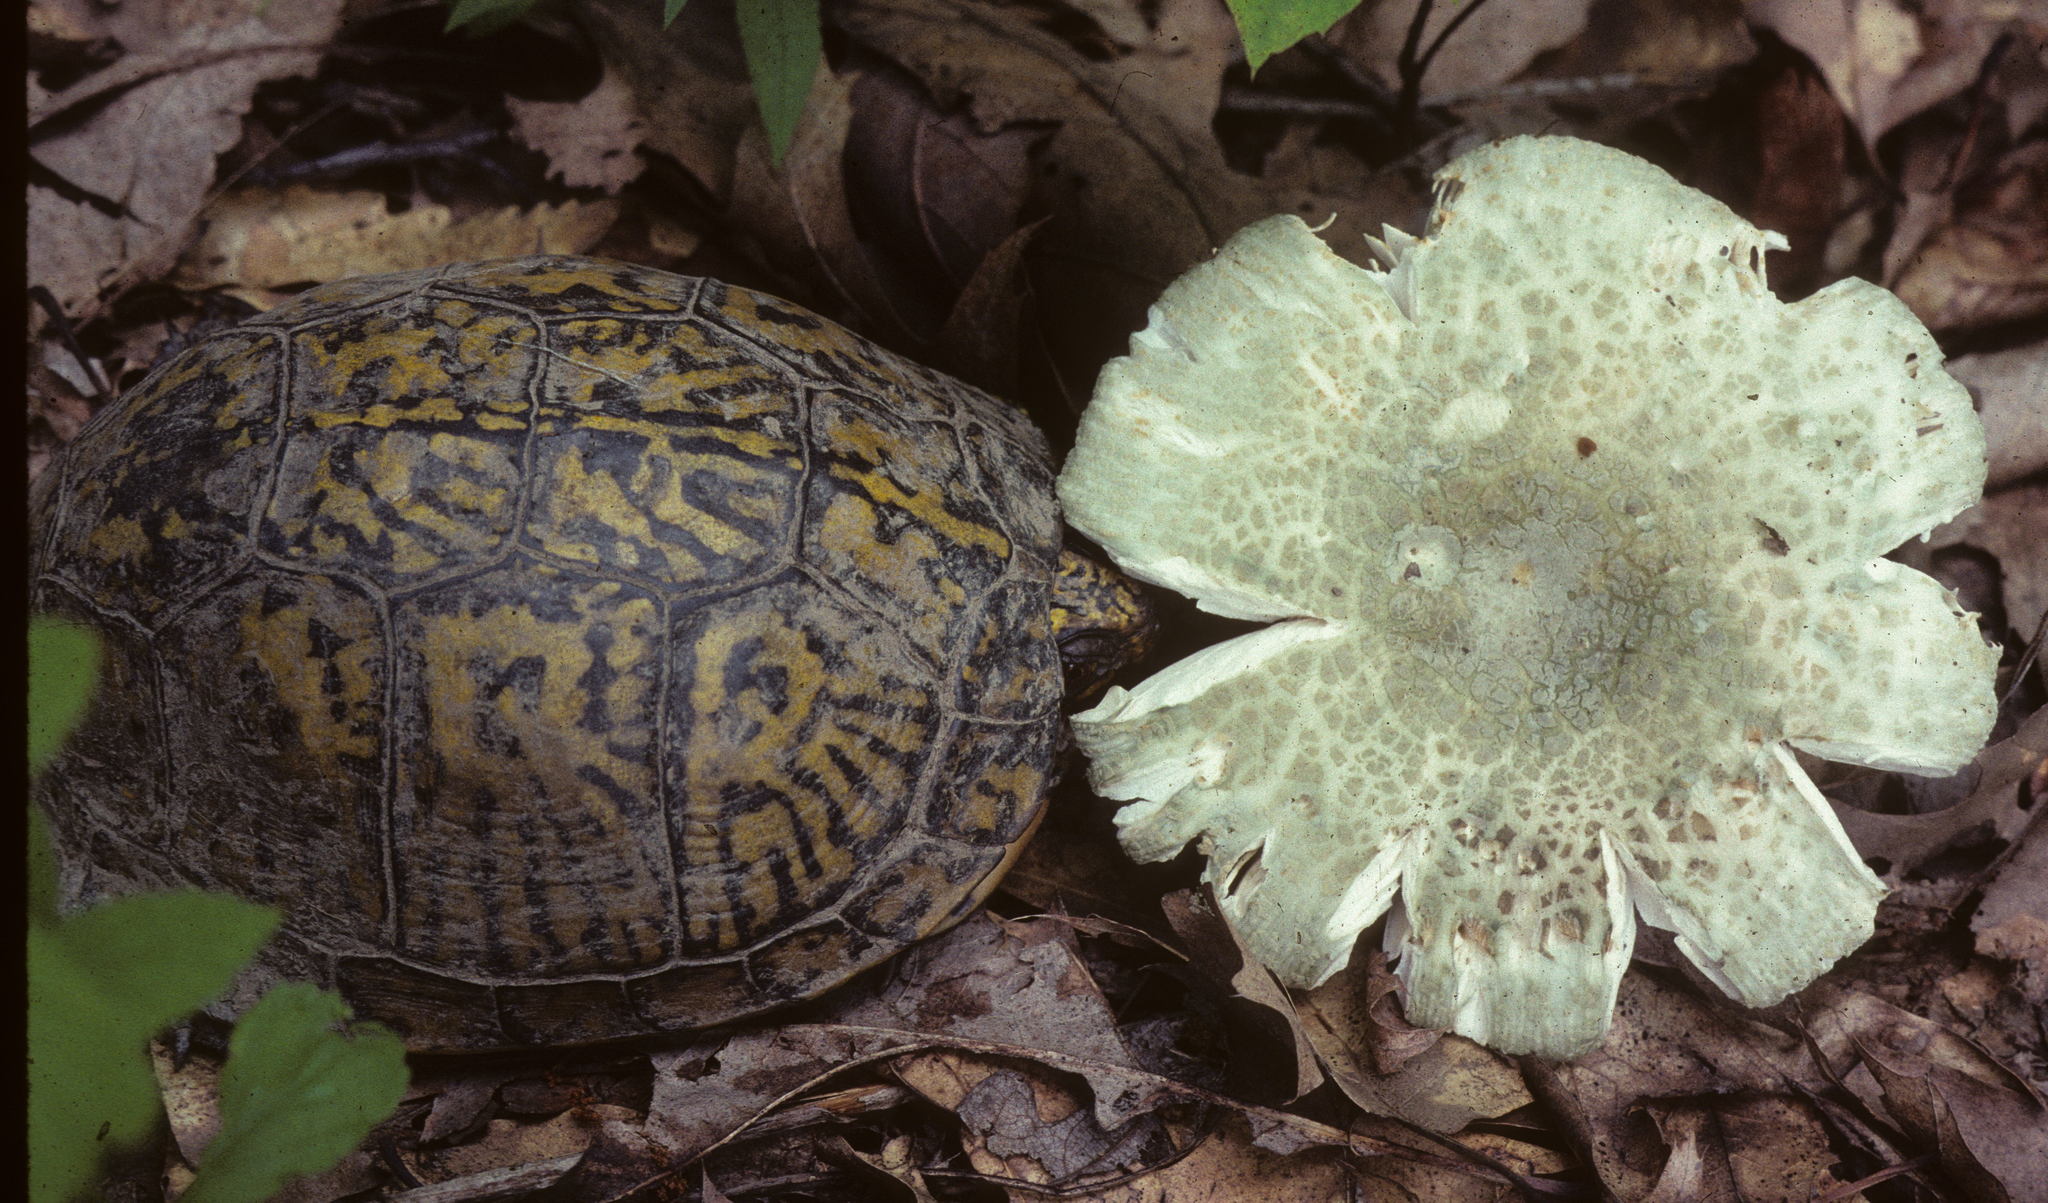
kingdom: Fungi
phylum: Basidiomycota
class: Agaricomycetes
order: Russulales
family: Russulaceae
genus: Russula
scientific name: Russula parvovirescens
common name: Blue-green cracking russula
